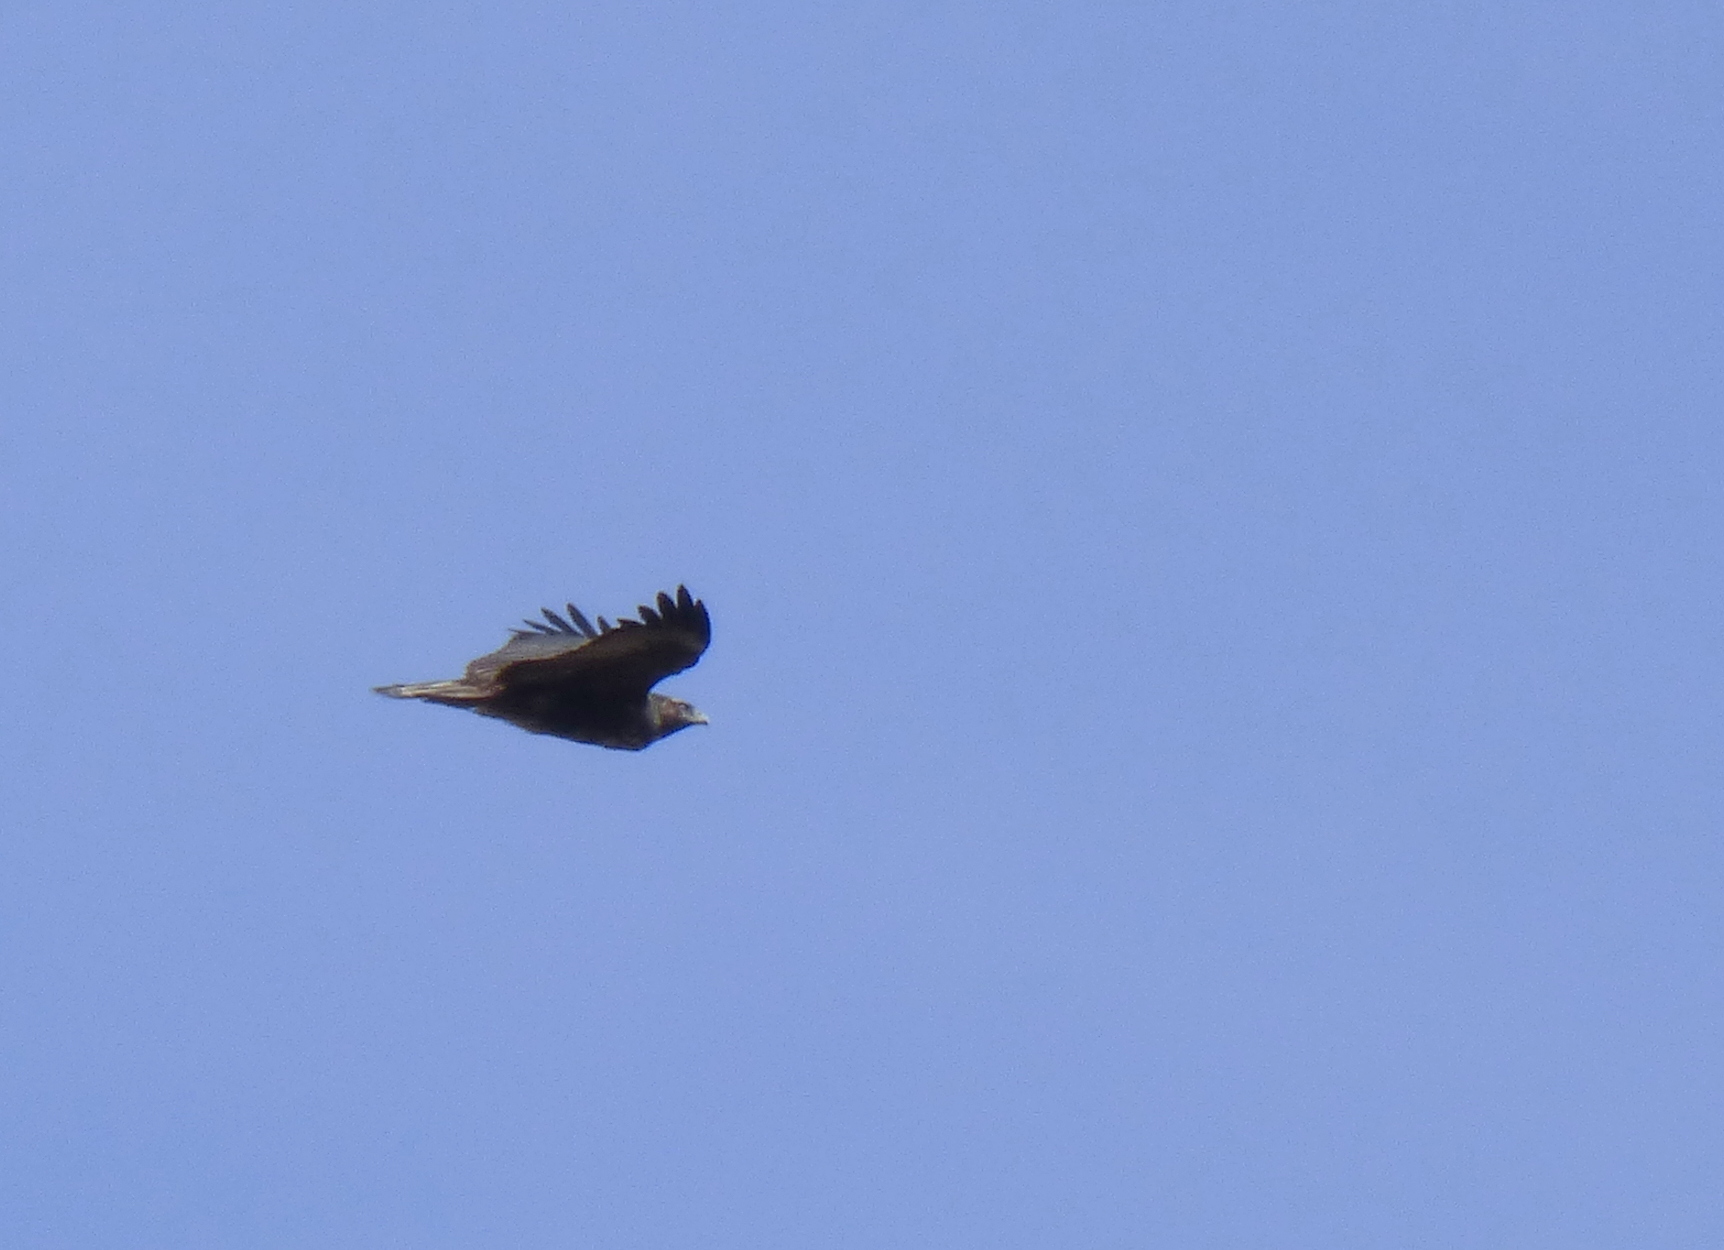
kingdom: Animalia
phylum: Chordata
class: Aves
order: Accipitriformes
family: Accipitridae
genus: Buteo
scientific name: Buteo albicaudatus
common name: White-tailed hawk
